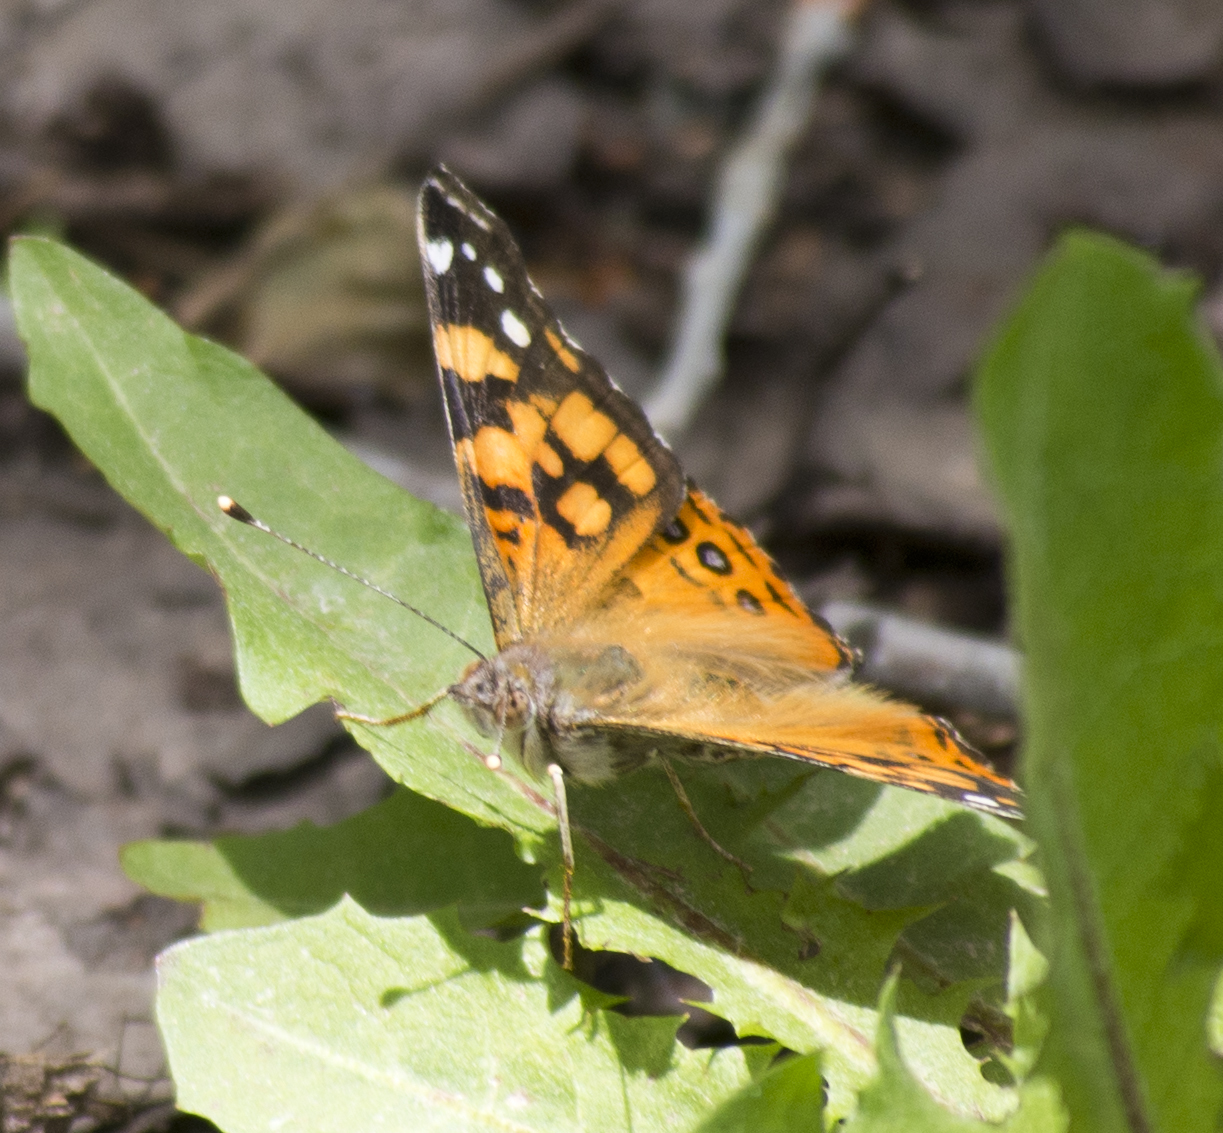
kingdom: Animalia
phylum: Arthropoda
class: Insecta
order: Lepidoptera
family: Nymphalidae
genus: Vanessa
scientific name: Vanessa annabella
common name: West coast lady
